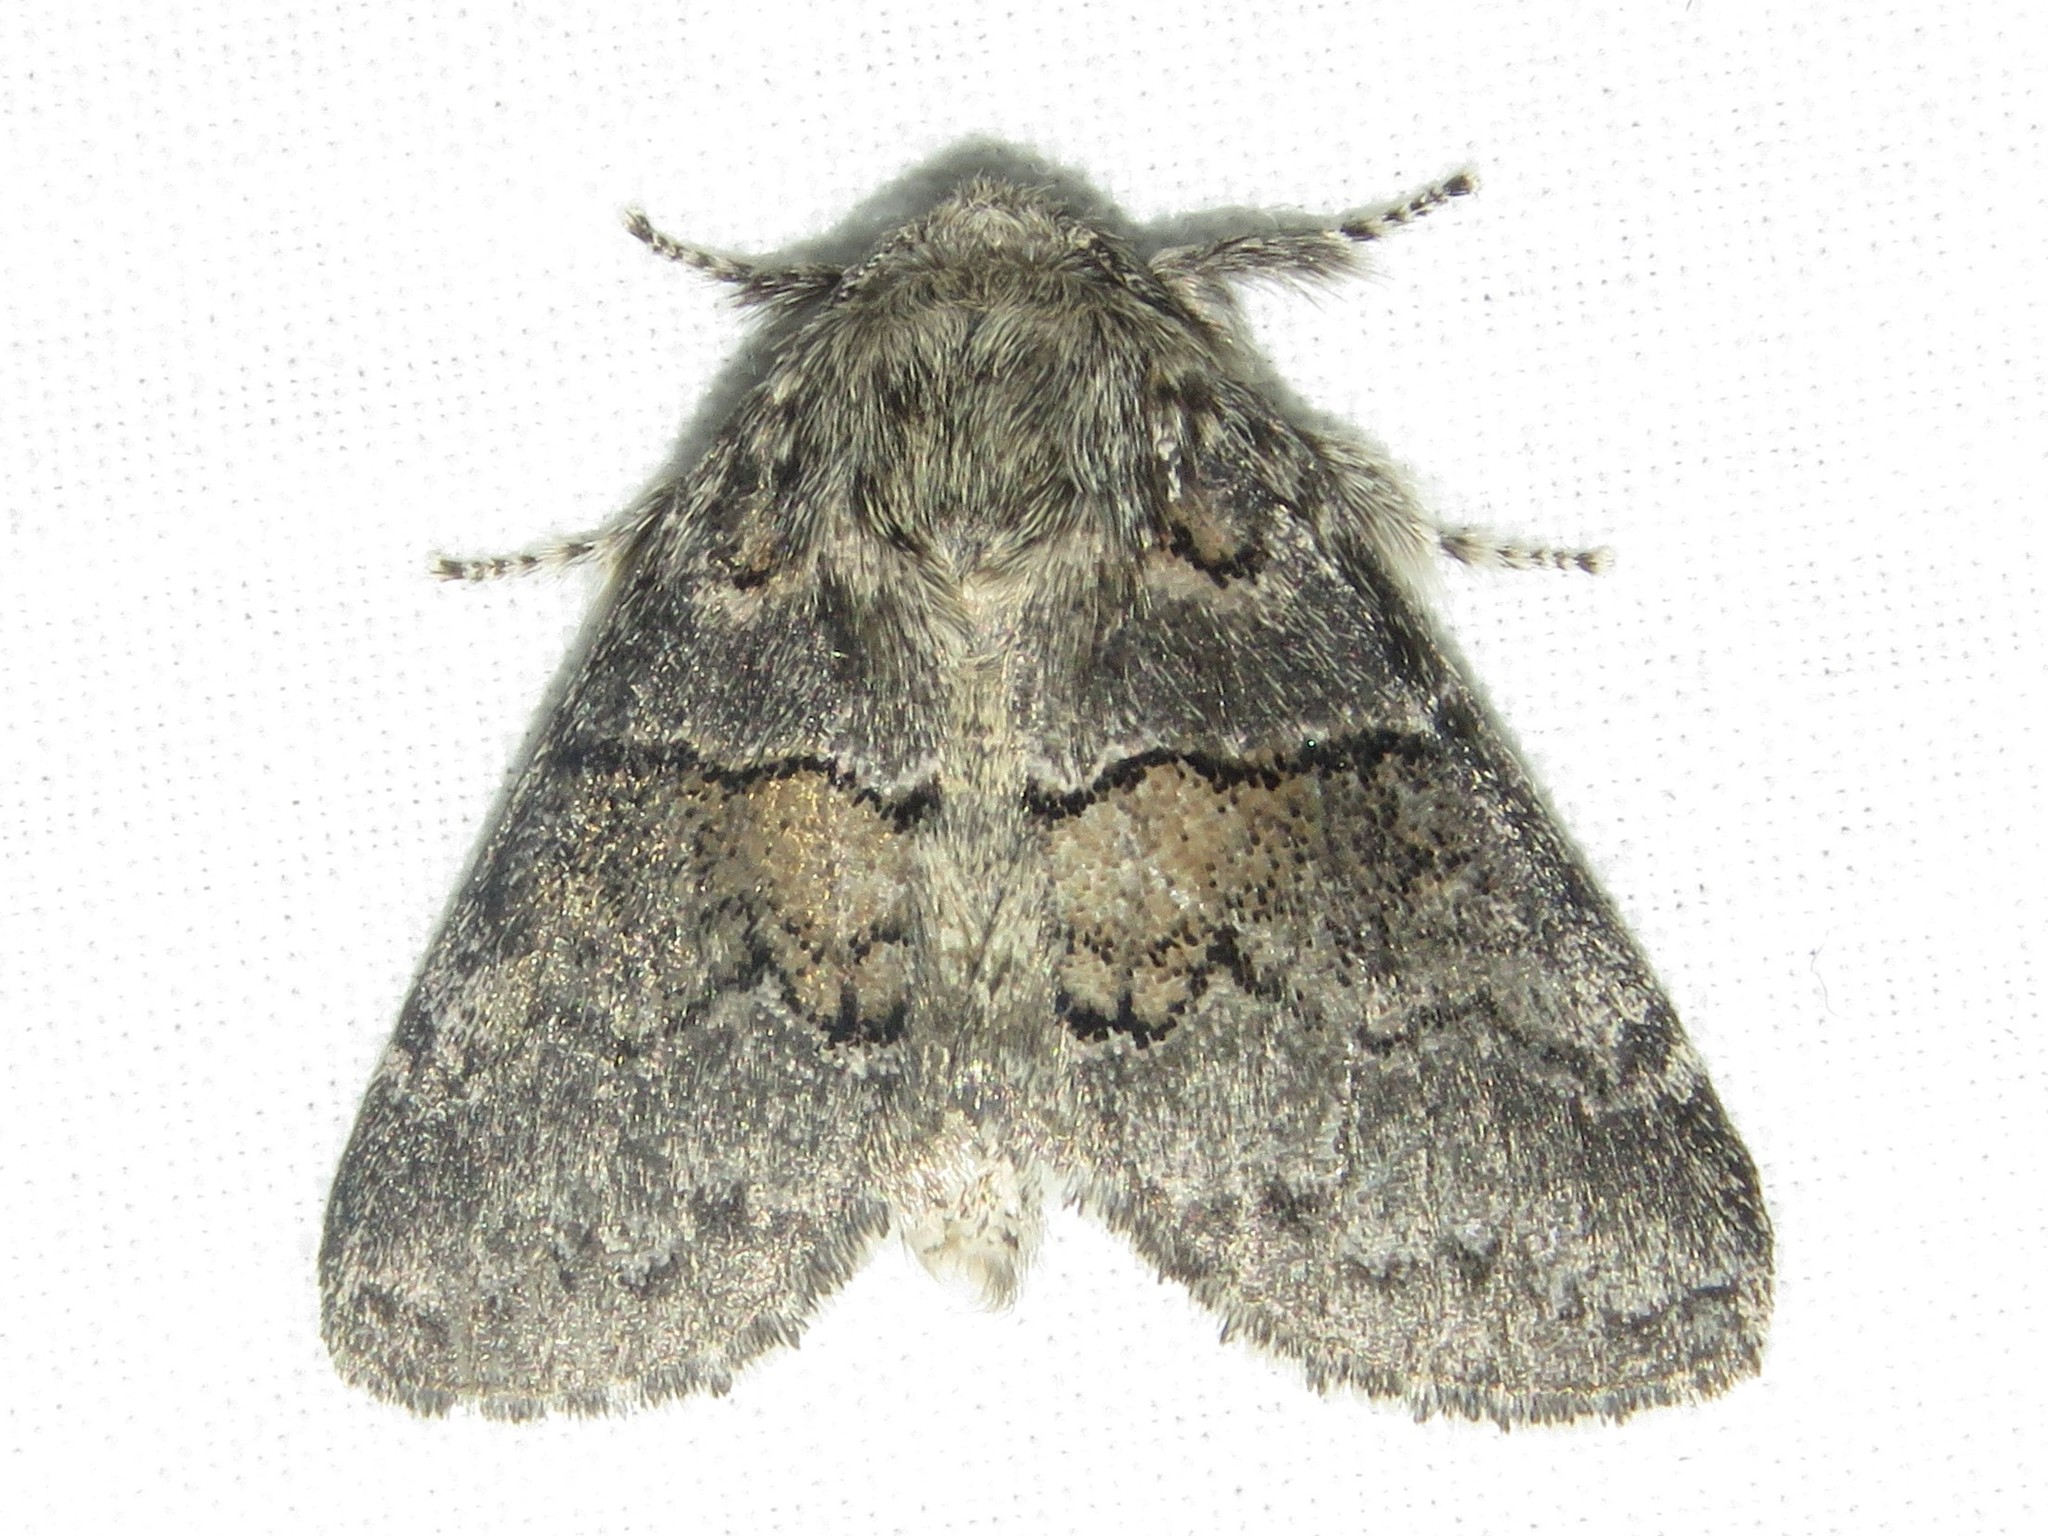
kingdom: Animalia
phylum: Arthropoda
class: Insecta
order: Lepidoptera
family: Notodontidae
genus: Gluphisia
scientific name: Gluphisia septentrionis
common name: Common gluphisia
